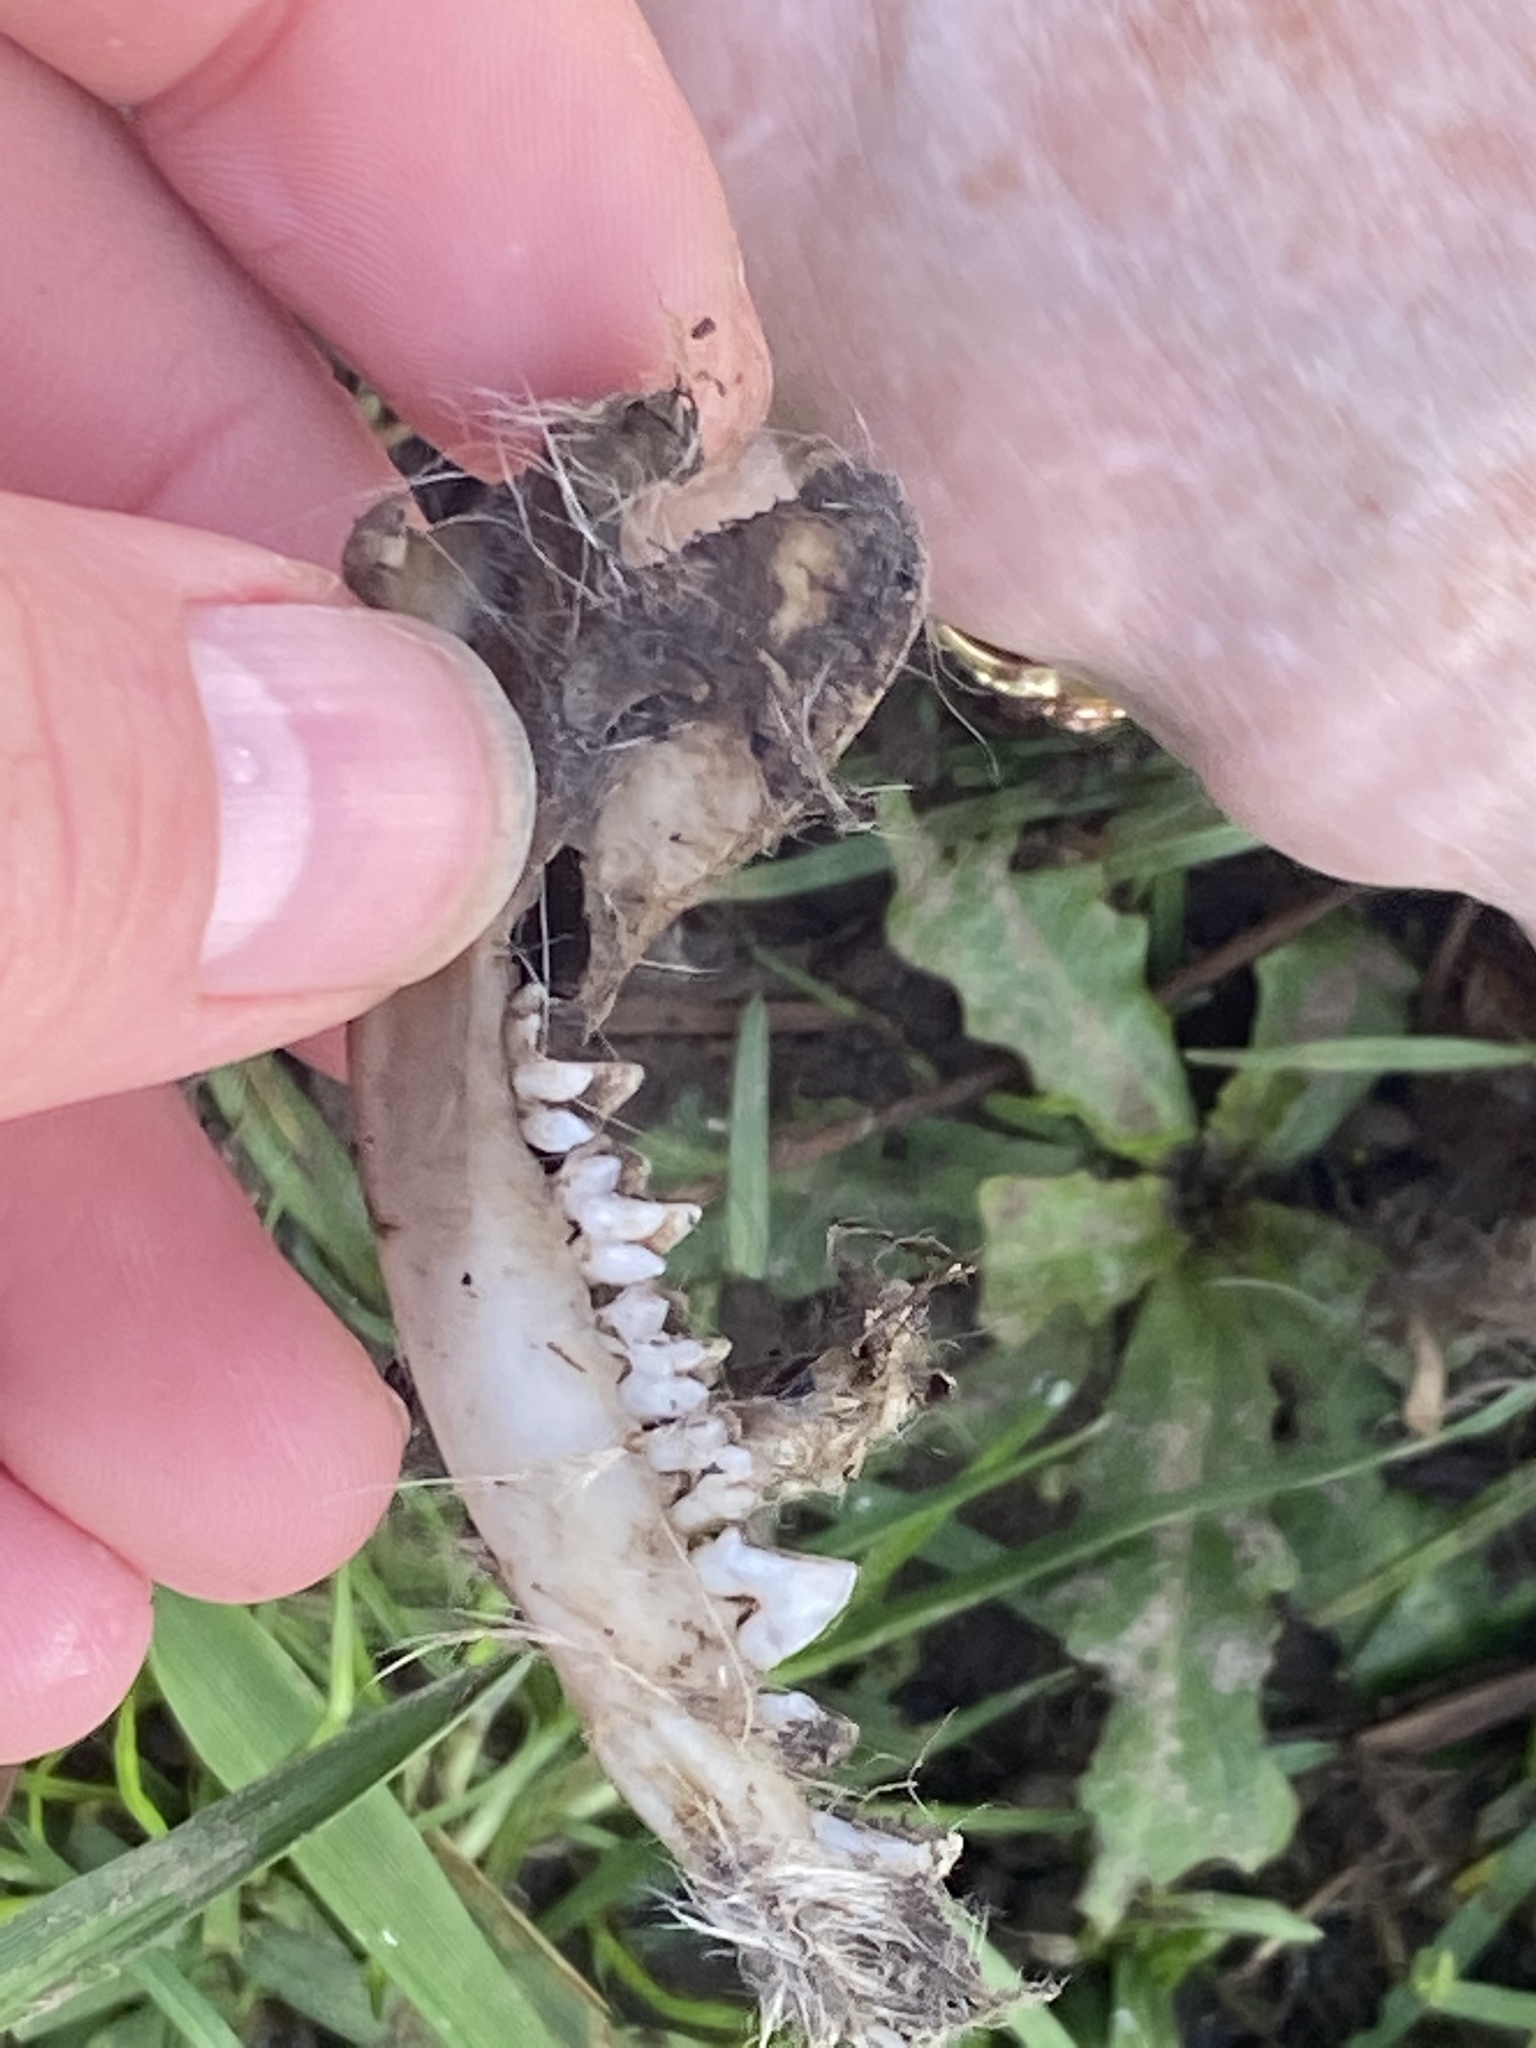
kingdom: Animalia
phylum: Chordata
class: Mammalia
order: Didelphimorphia
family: Didelphidae
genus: Didelphis
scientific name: Didelphis virginiana
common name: Virginia opossum
